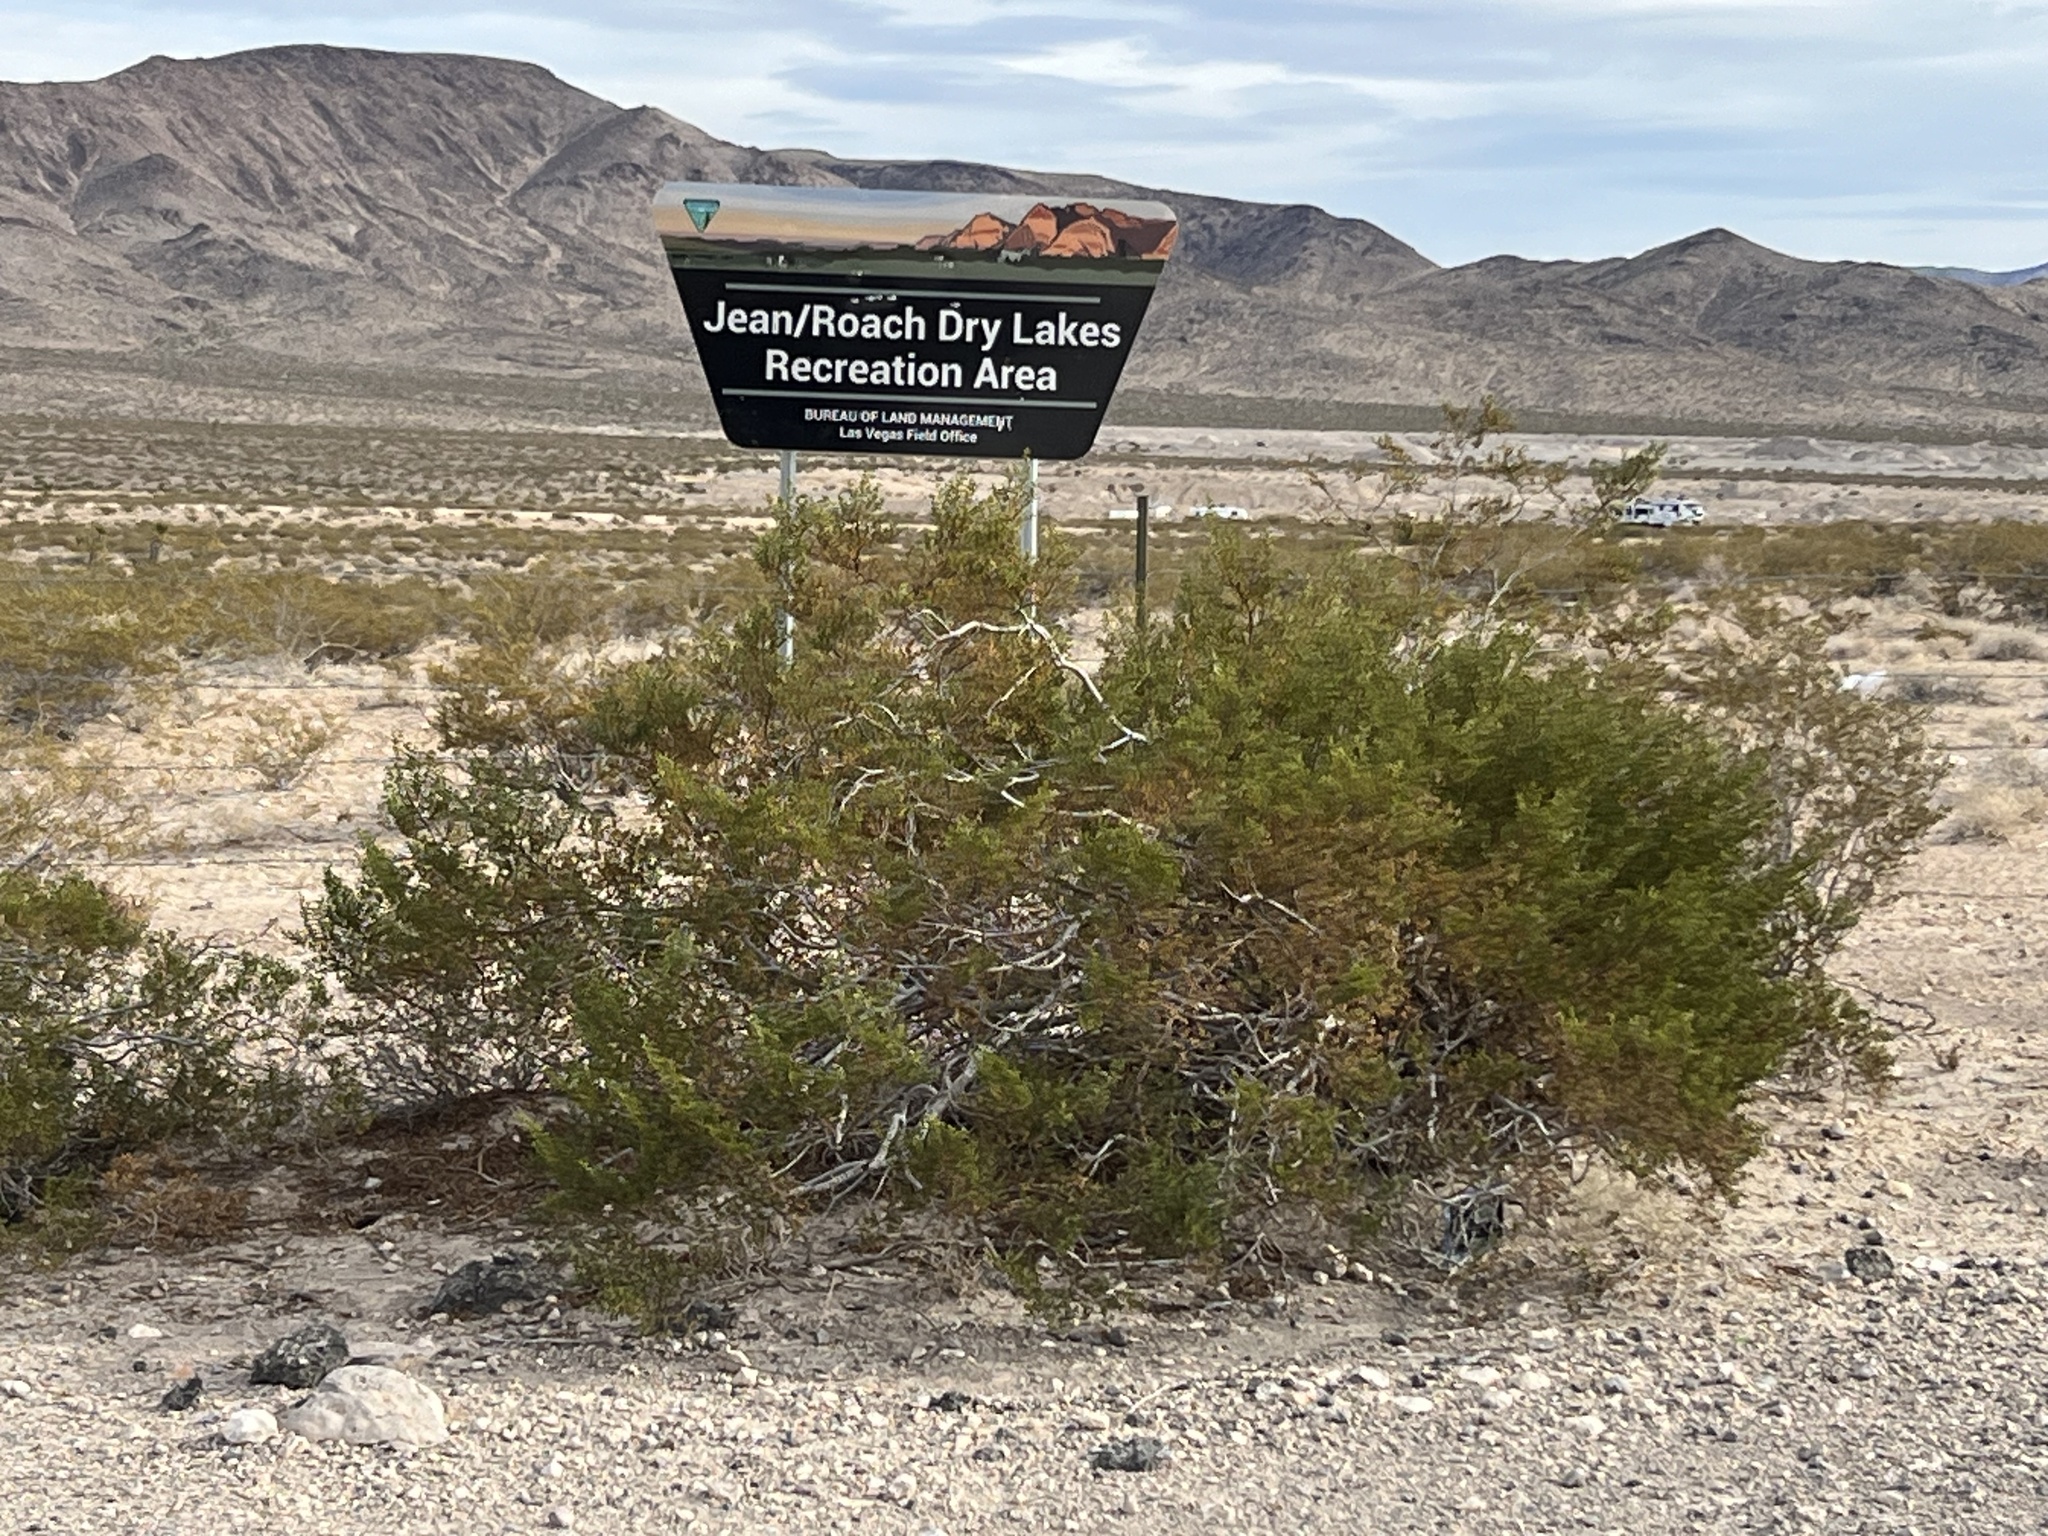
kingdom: Plantae
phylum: Tracheophyta
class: Magnoliopsida
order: Zygophyllales
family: Zygophyllaceae
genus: Larrea
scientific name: Larrea tridentata
